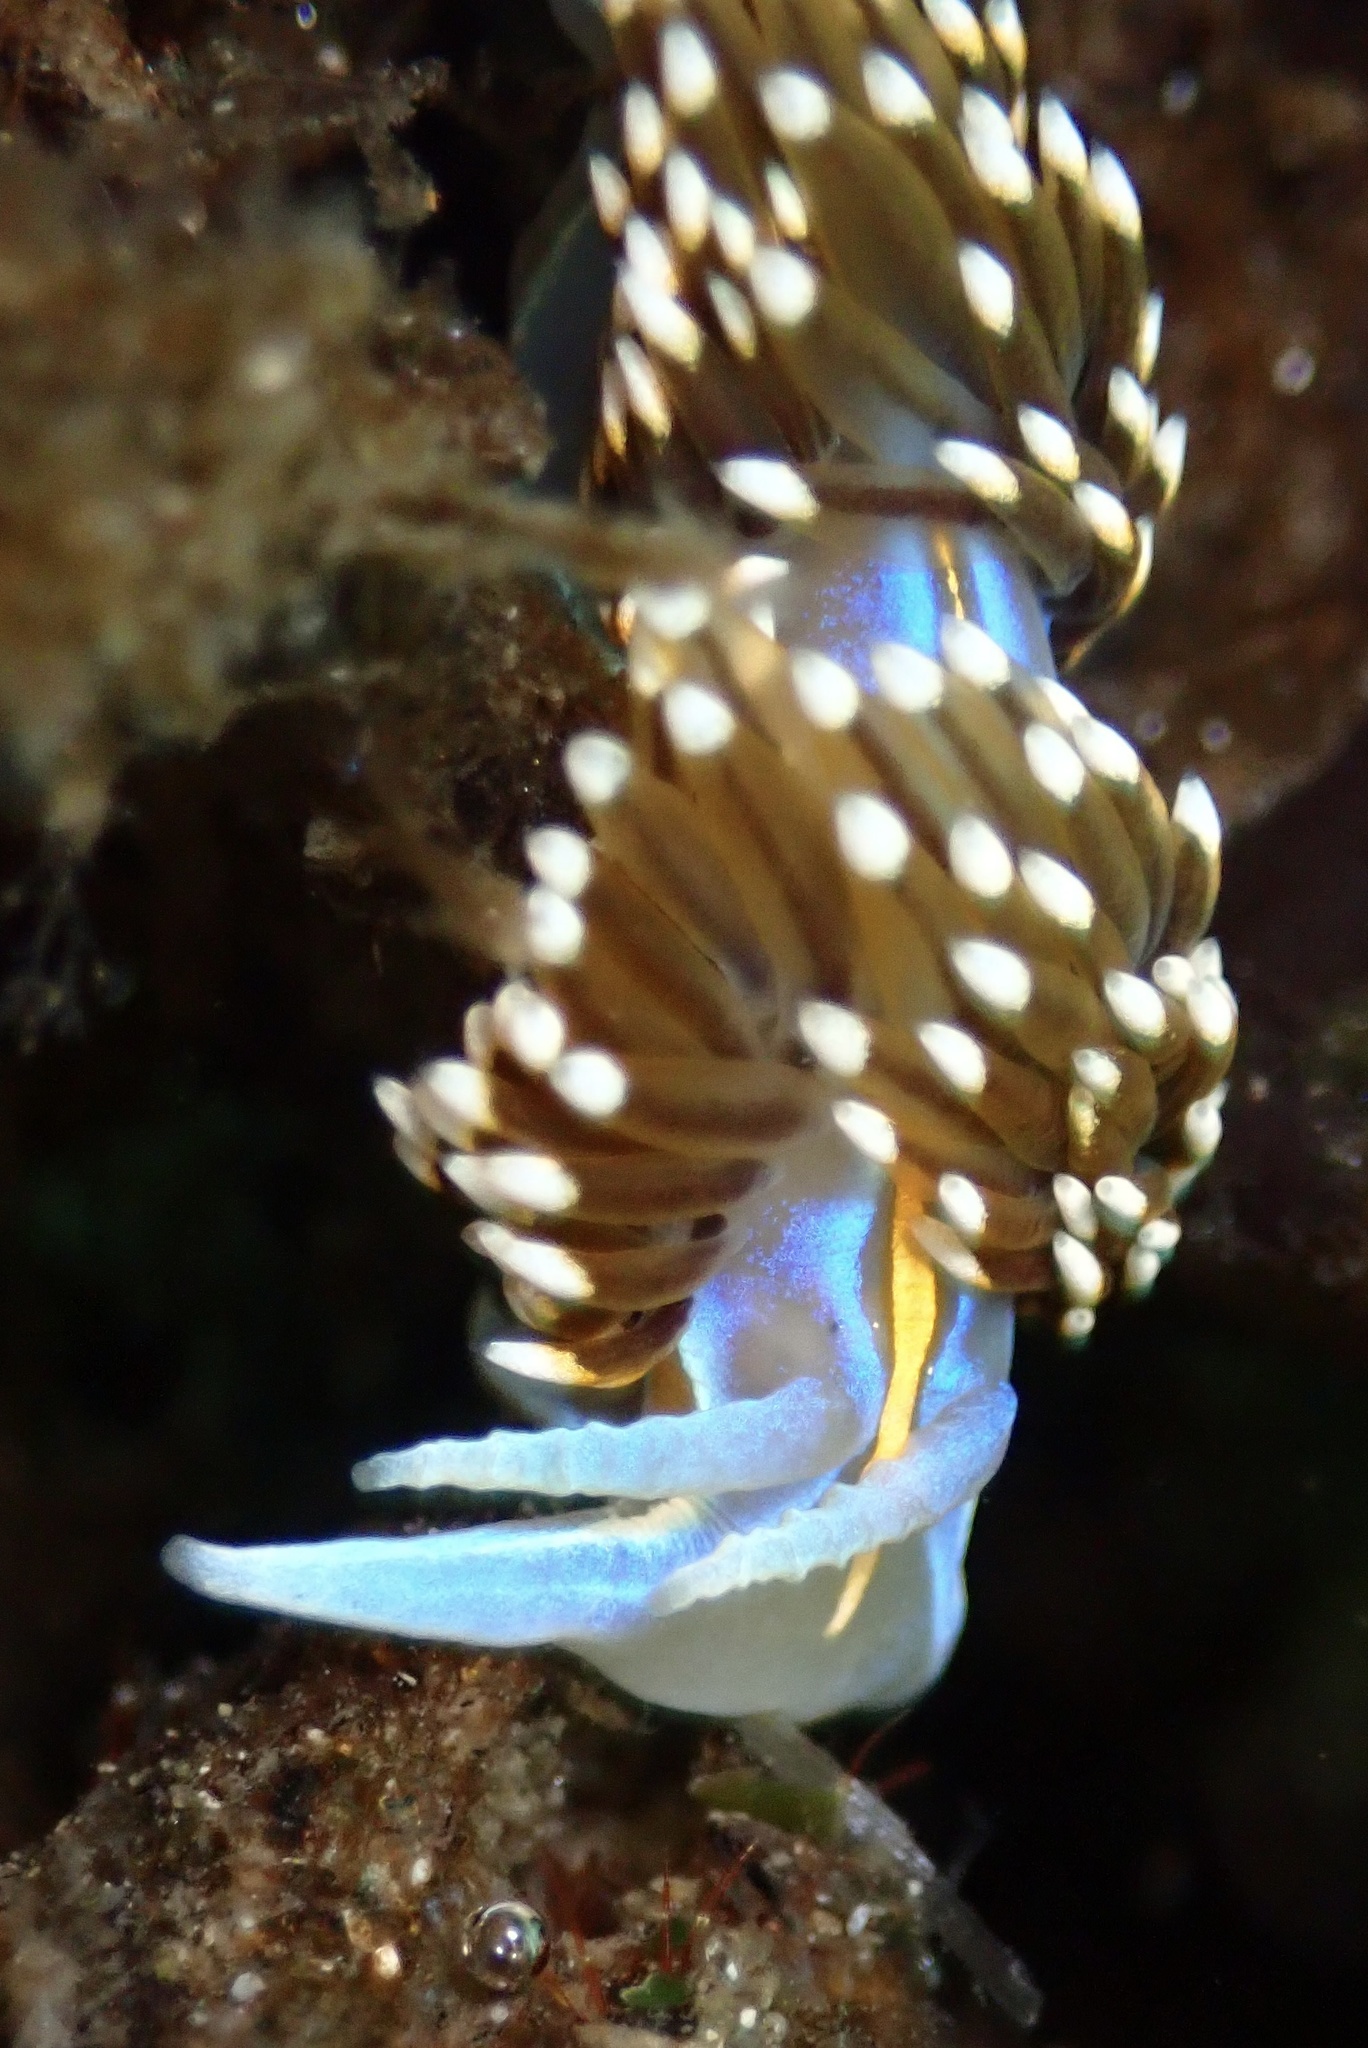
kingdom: Animalia
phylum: Mollusca
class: Gastropoda
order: Nudibranchia
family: Myrrhinidae
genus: Hermissenda
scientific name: Hermissenda opalescens
